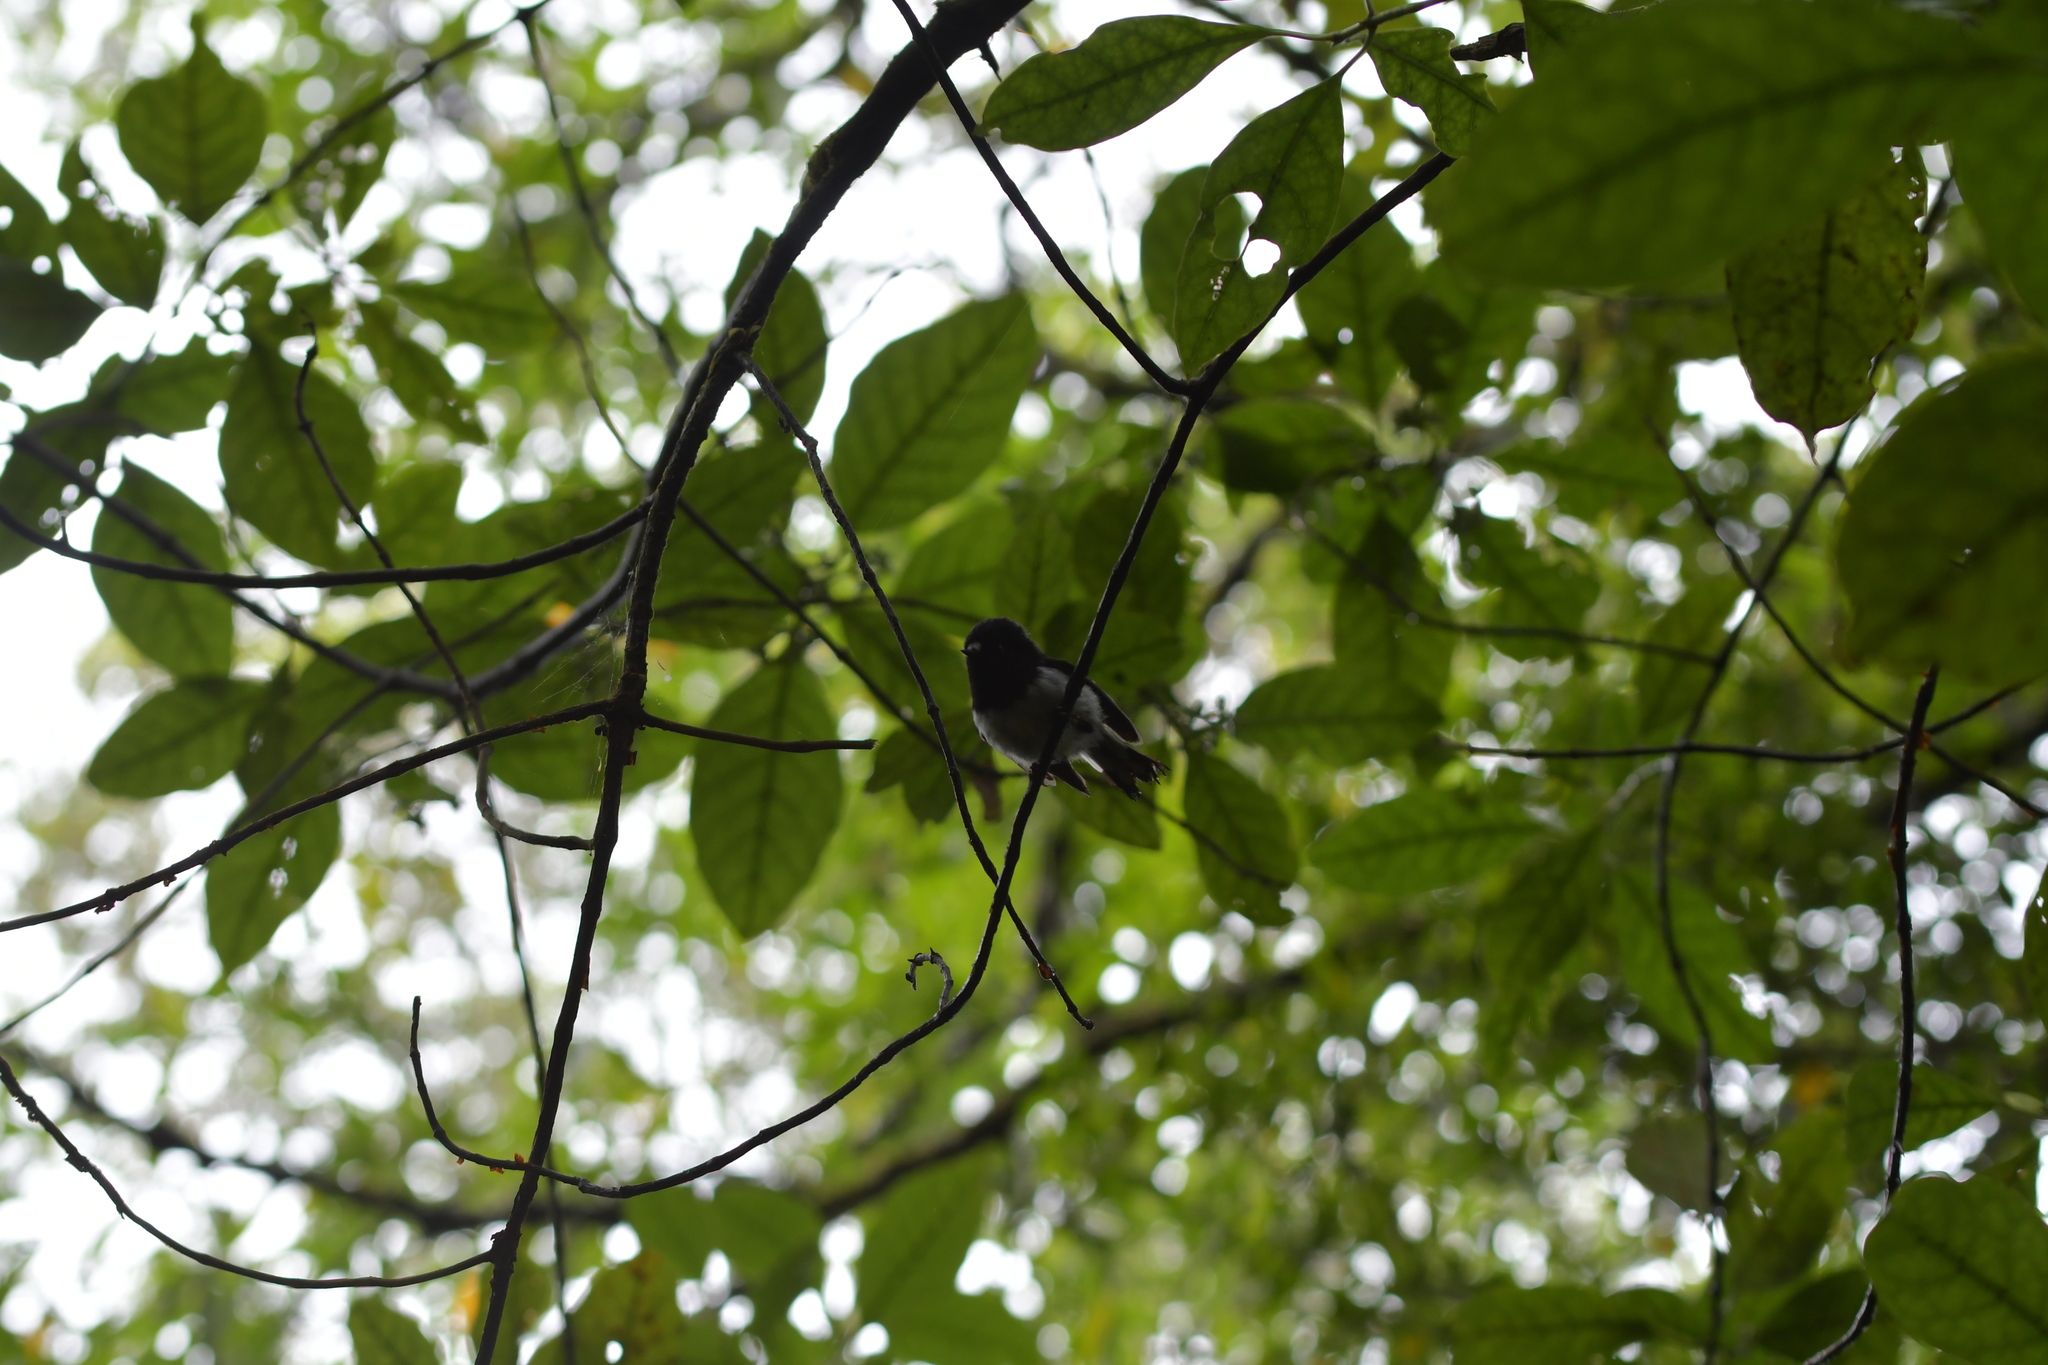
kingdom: Animalia
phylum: Chordata
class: Aves
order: Passeriformes
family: Petroicidae
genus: Petroica
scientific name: Petroica macrocephala
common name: Tomtit
